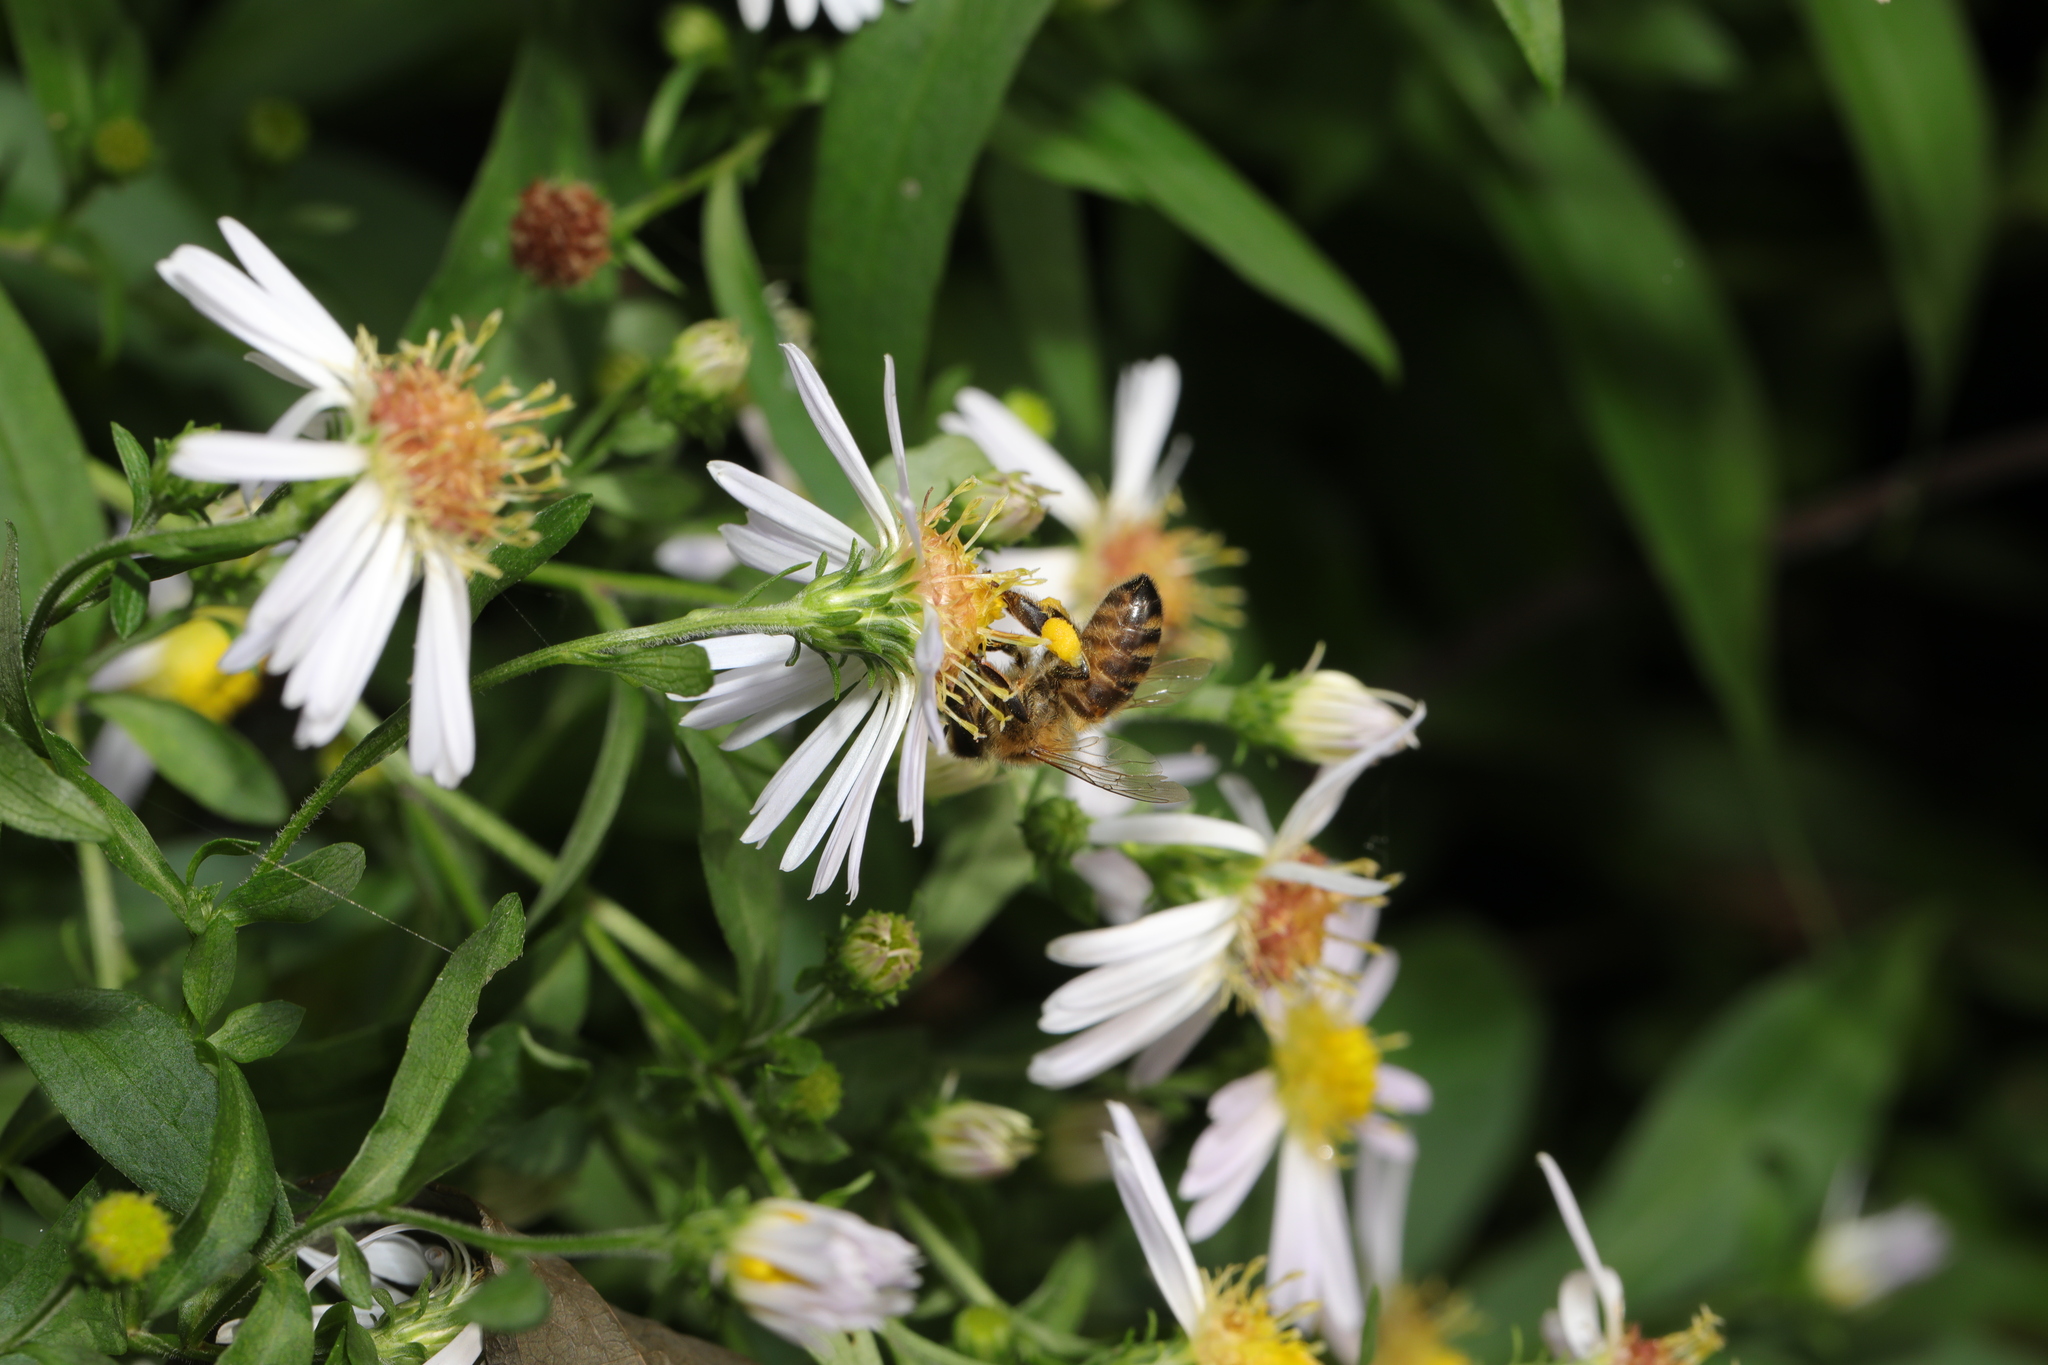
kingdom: Animalia
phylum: Arthropoda
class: Insecta
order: Hymenoptera
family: Apidae
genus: Apis
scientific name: Apis mellifera
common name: Honey bee
